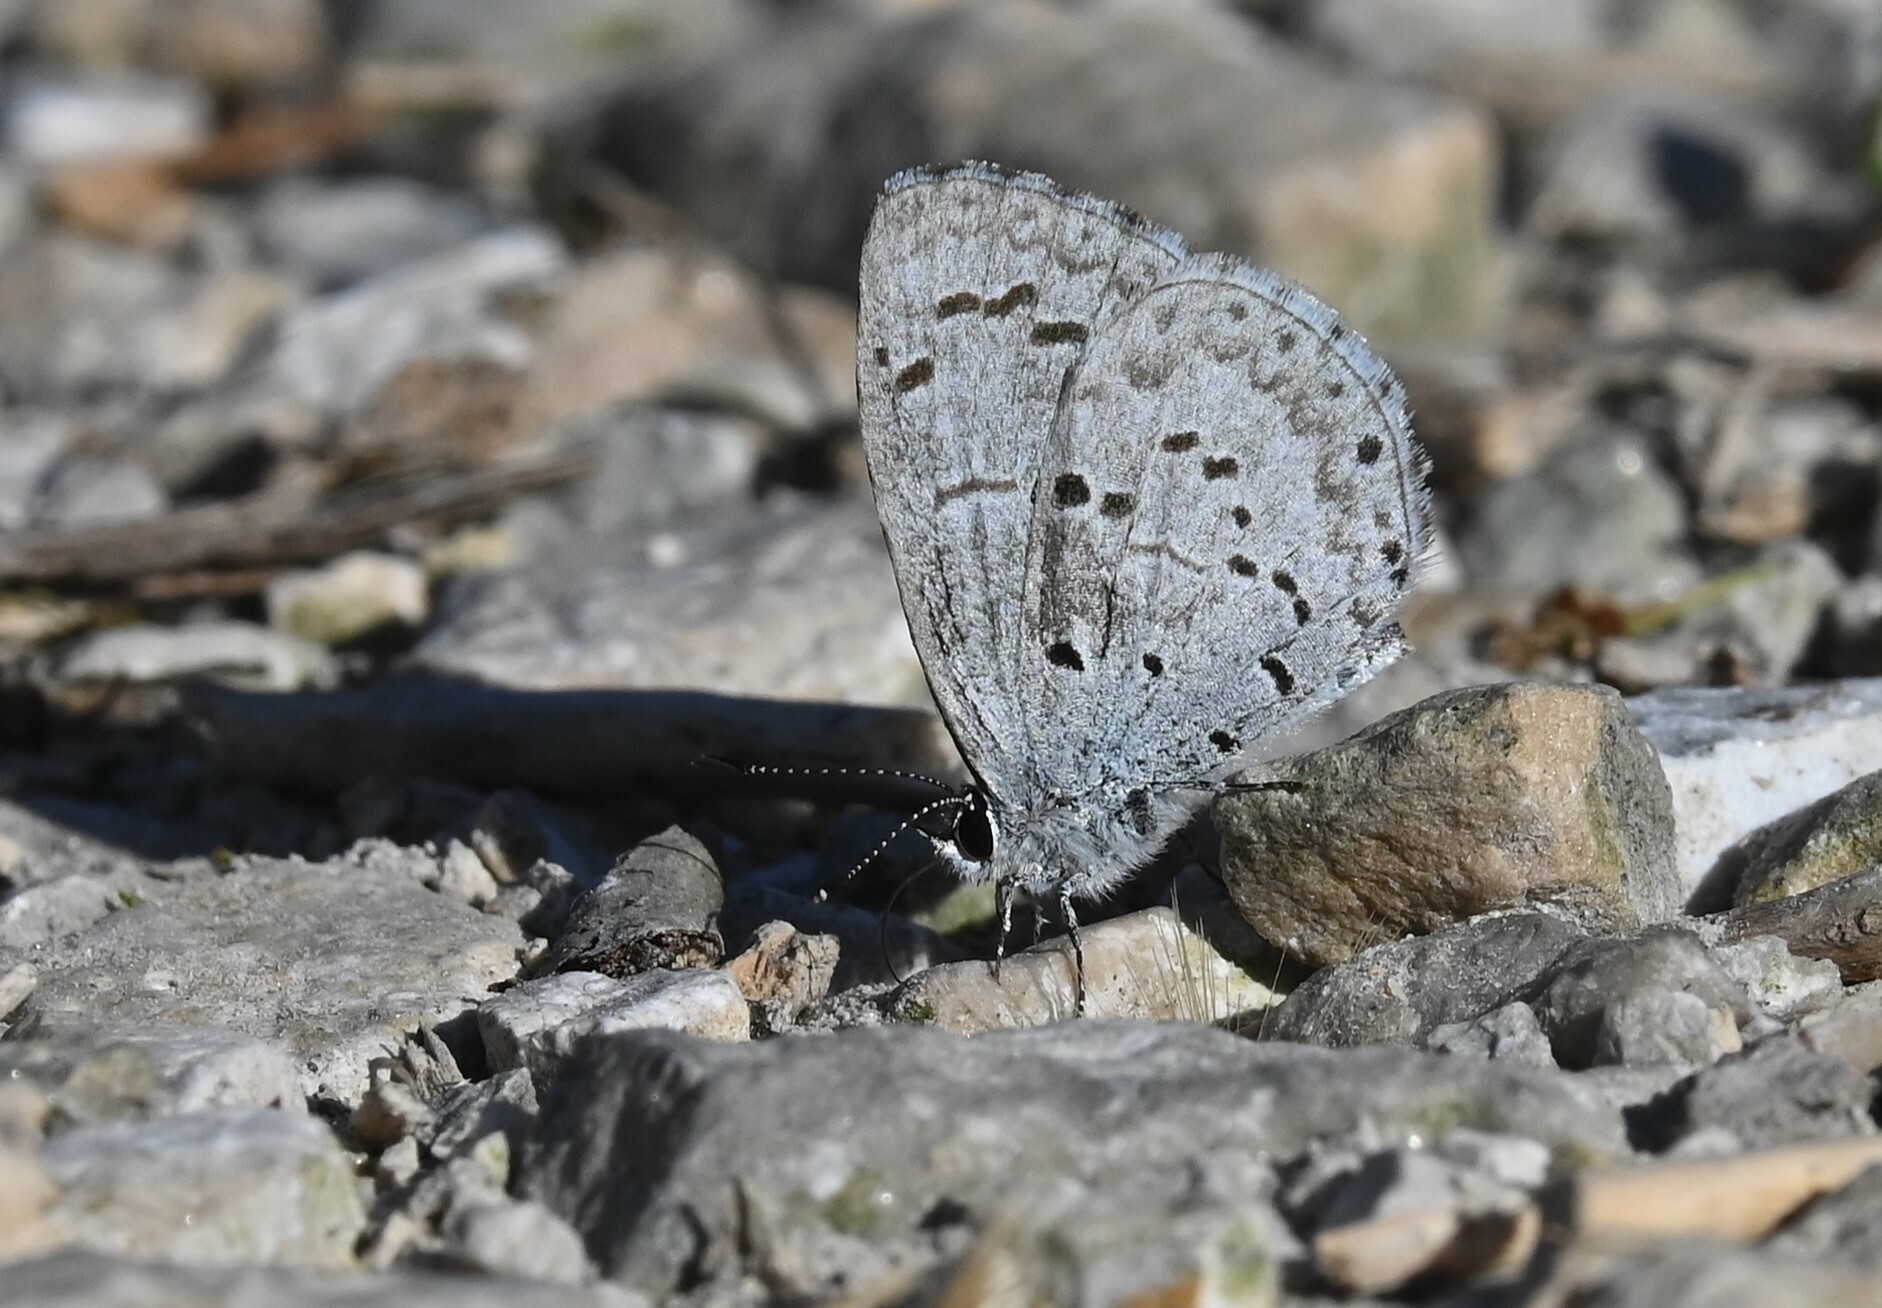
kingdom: Animalia
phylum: Arthropoda
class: Insecta
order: Lepidoptera
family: Lycaenidae
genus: Celastrina
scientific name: Celastrina ladon
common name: Spring azure
